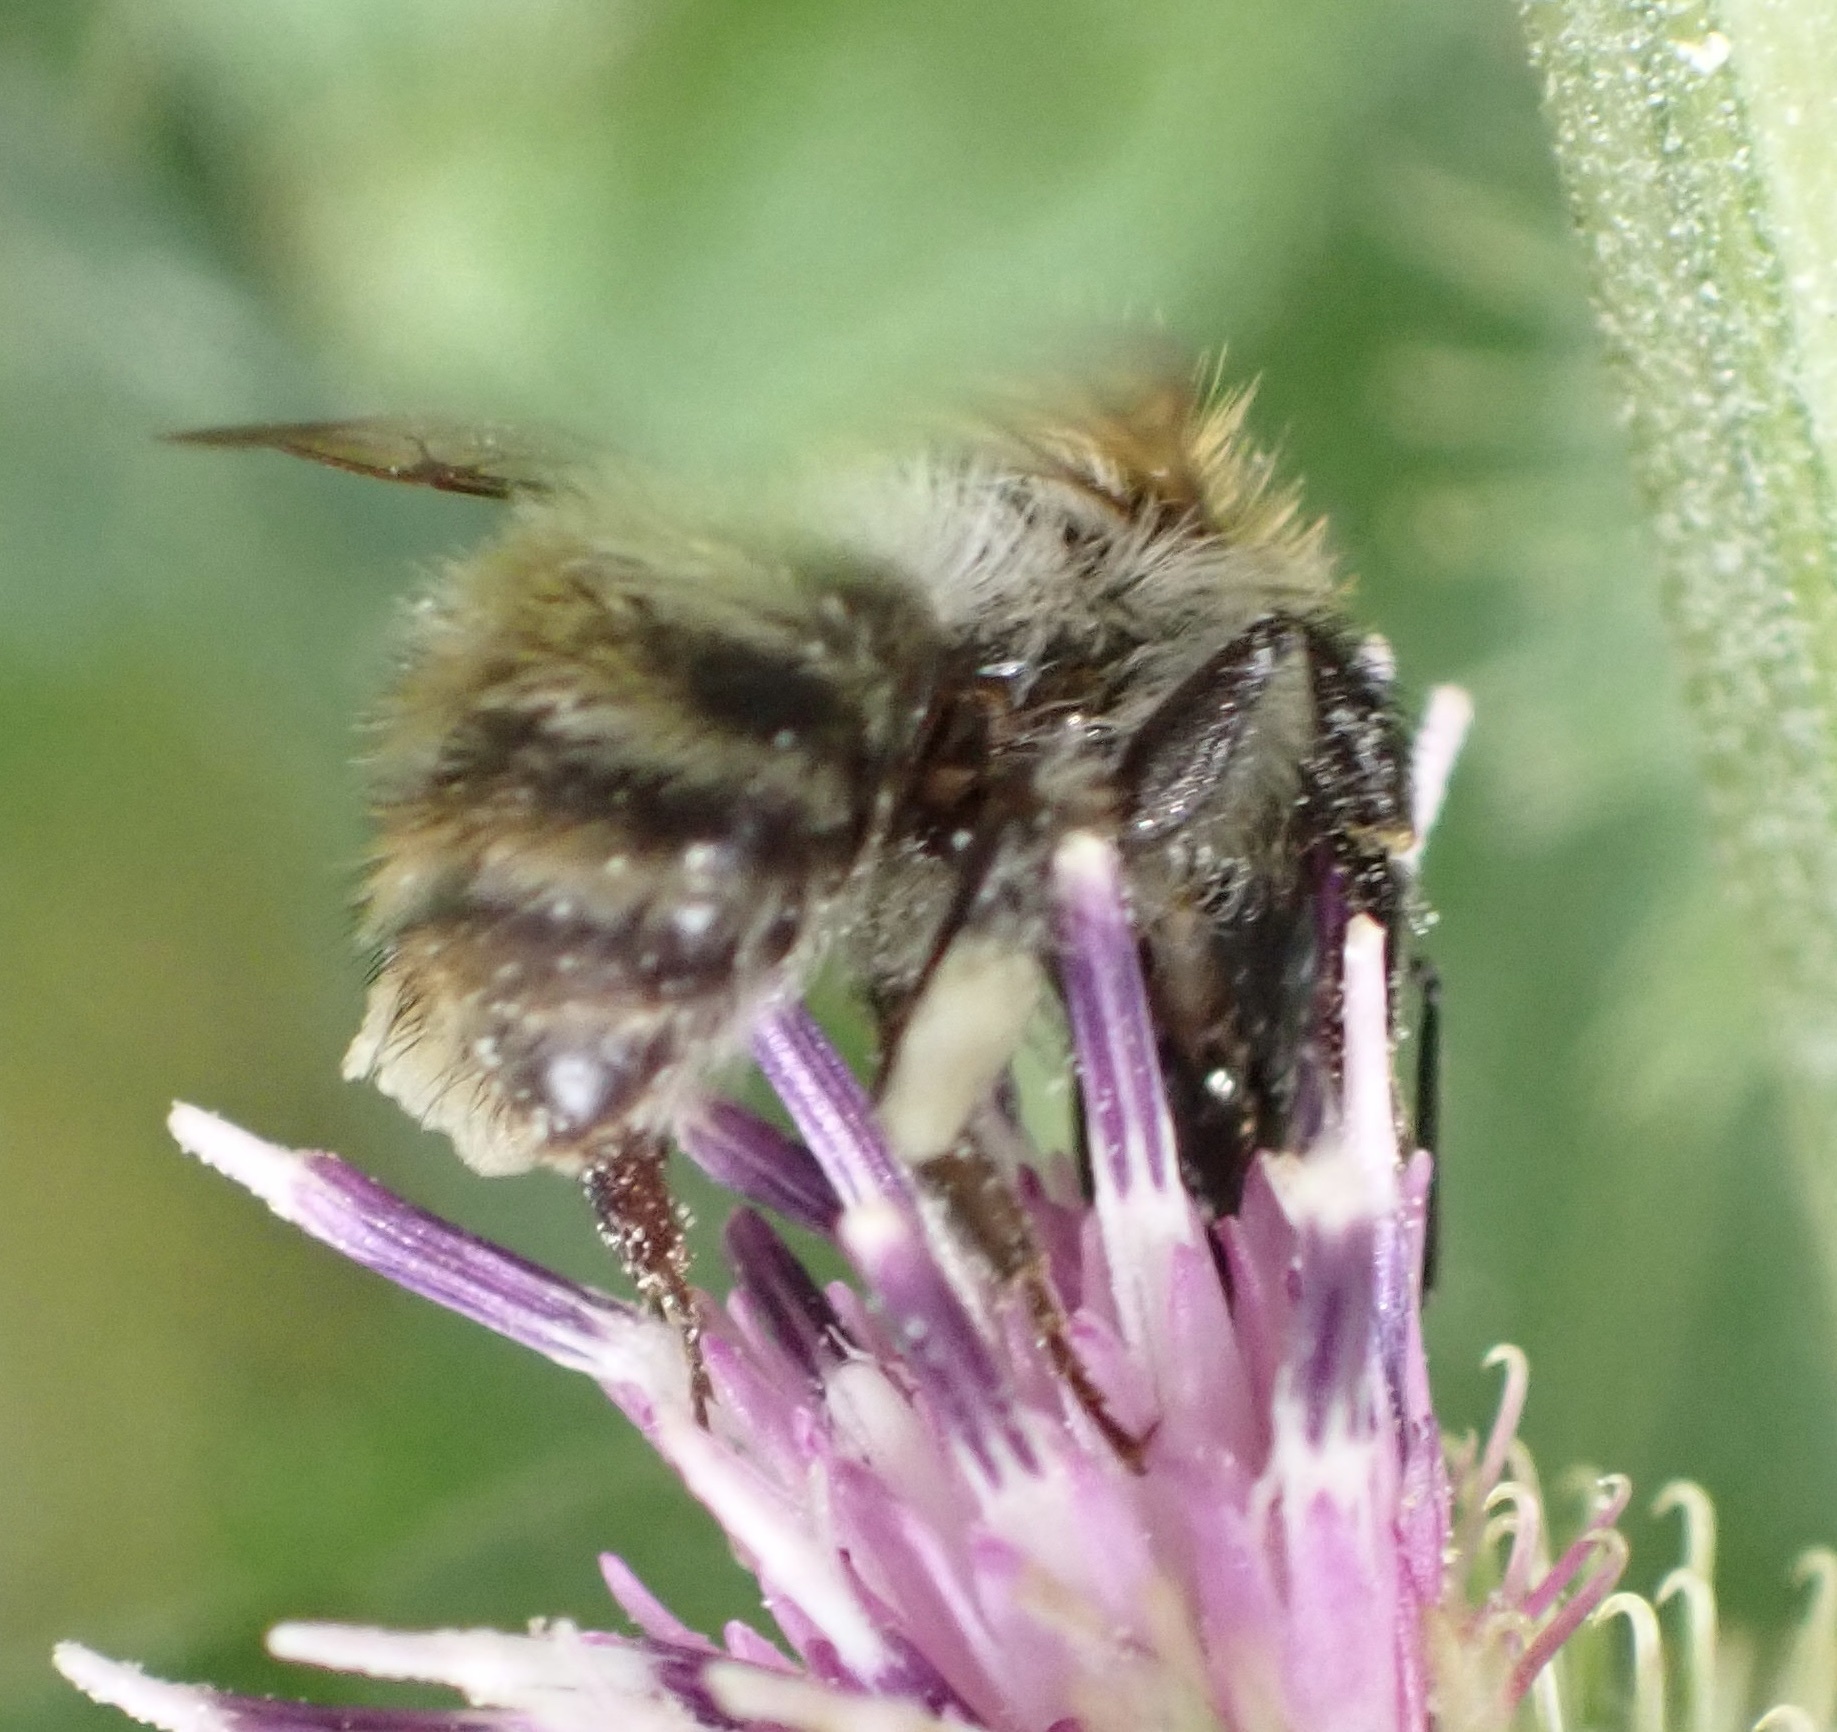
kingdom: Animalia
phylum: Arthropoda
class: Insecta
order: Hymenoptera
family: Apidae
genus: Bombus
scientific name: Bombus pascuorum
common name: Common carder bee
